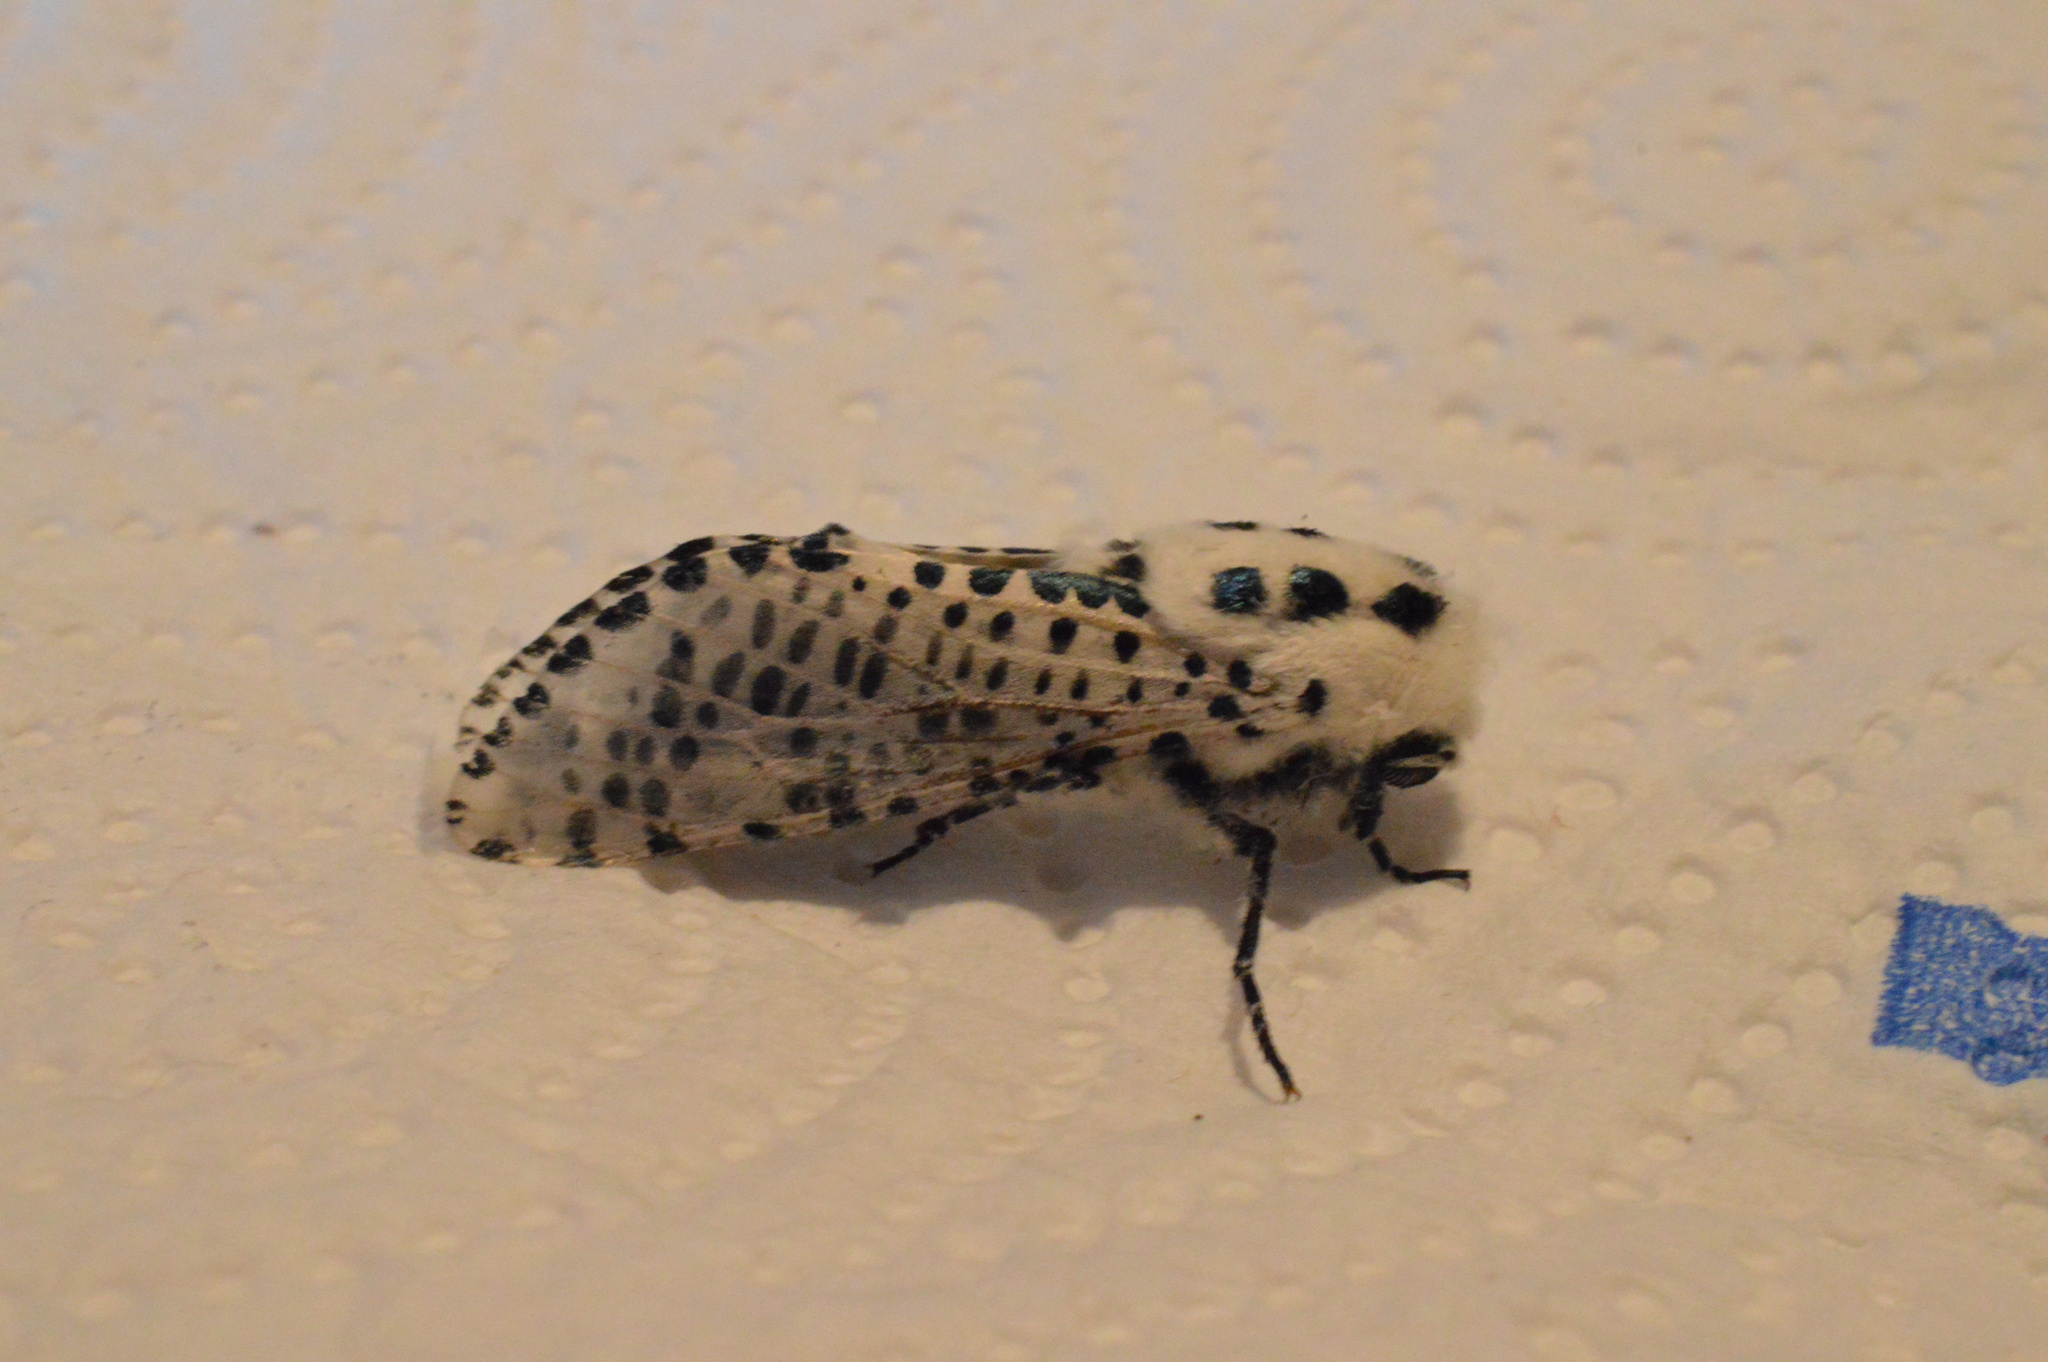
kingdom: Animalia
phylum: Arthropoda
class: Insecta
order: Lepidoptera
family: Cossidae
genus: Zeuzera
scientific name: Zeuzera pyrina
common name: Leopard moth
